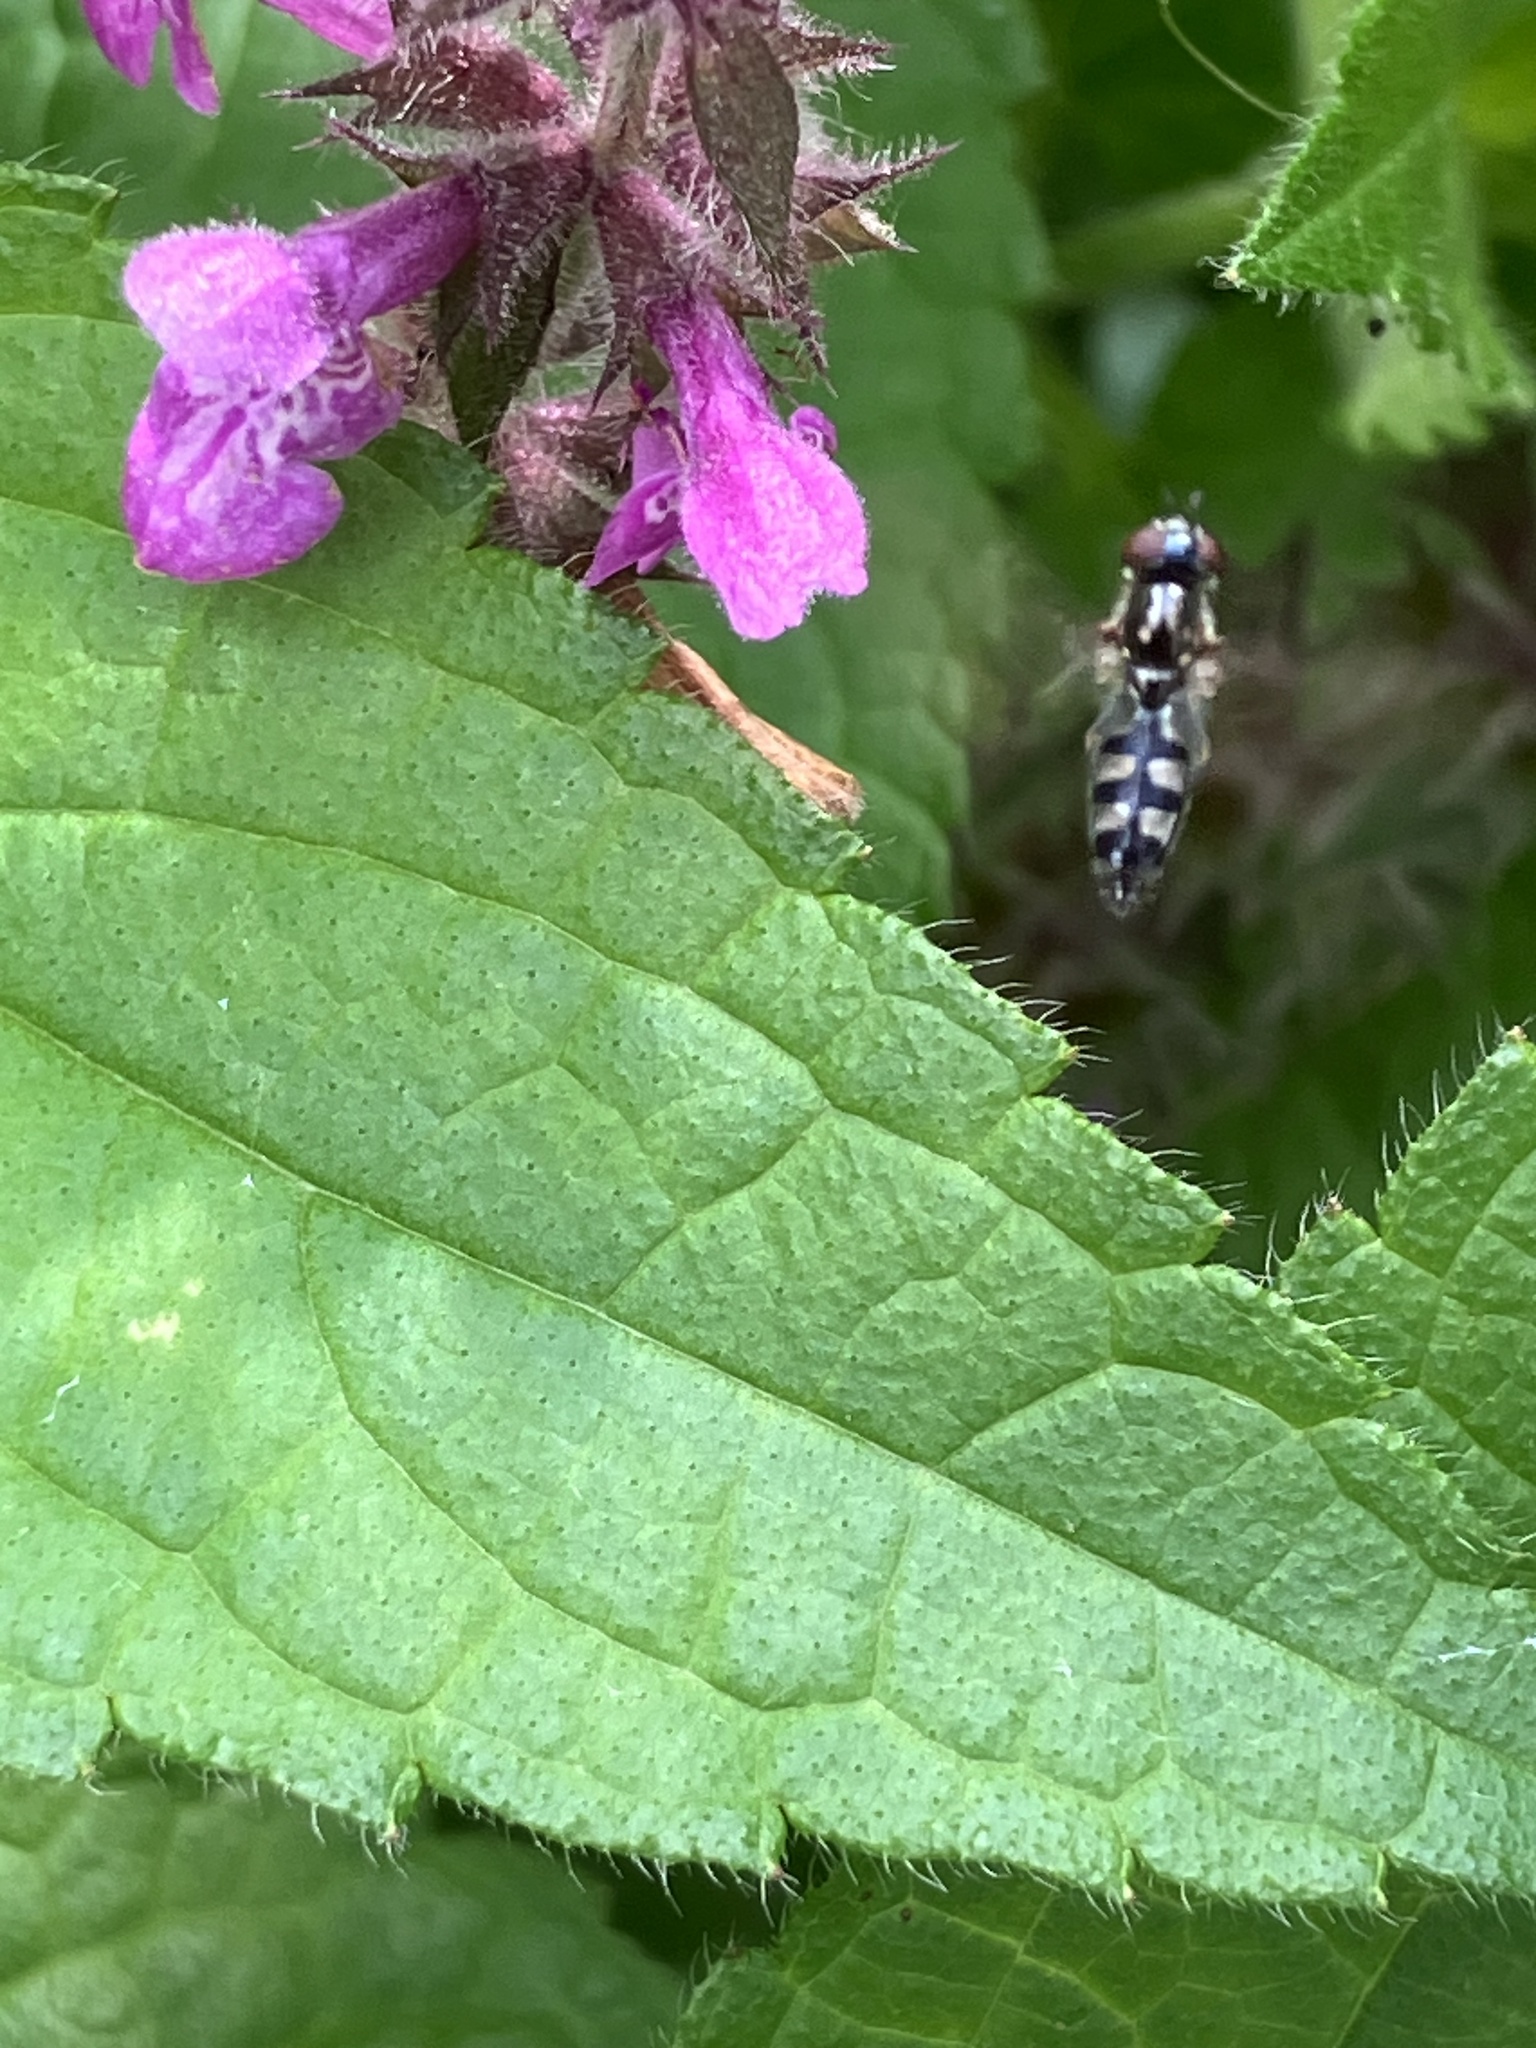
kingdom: Animalia
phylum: Arthropoda
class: Insecta
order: Diptera
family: Syrphidae
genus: Platycheirus
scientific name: Platycheirus albimanus
